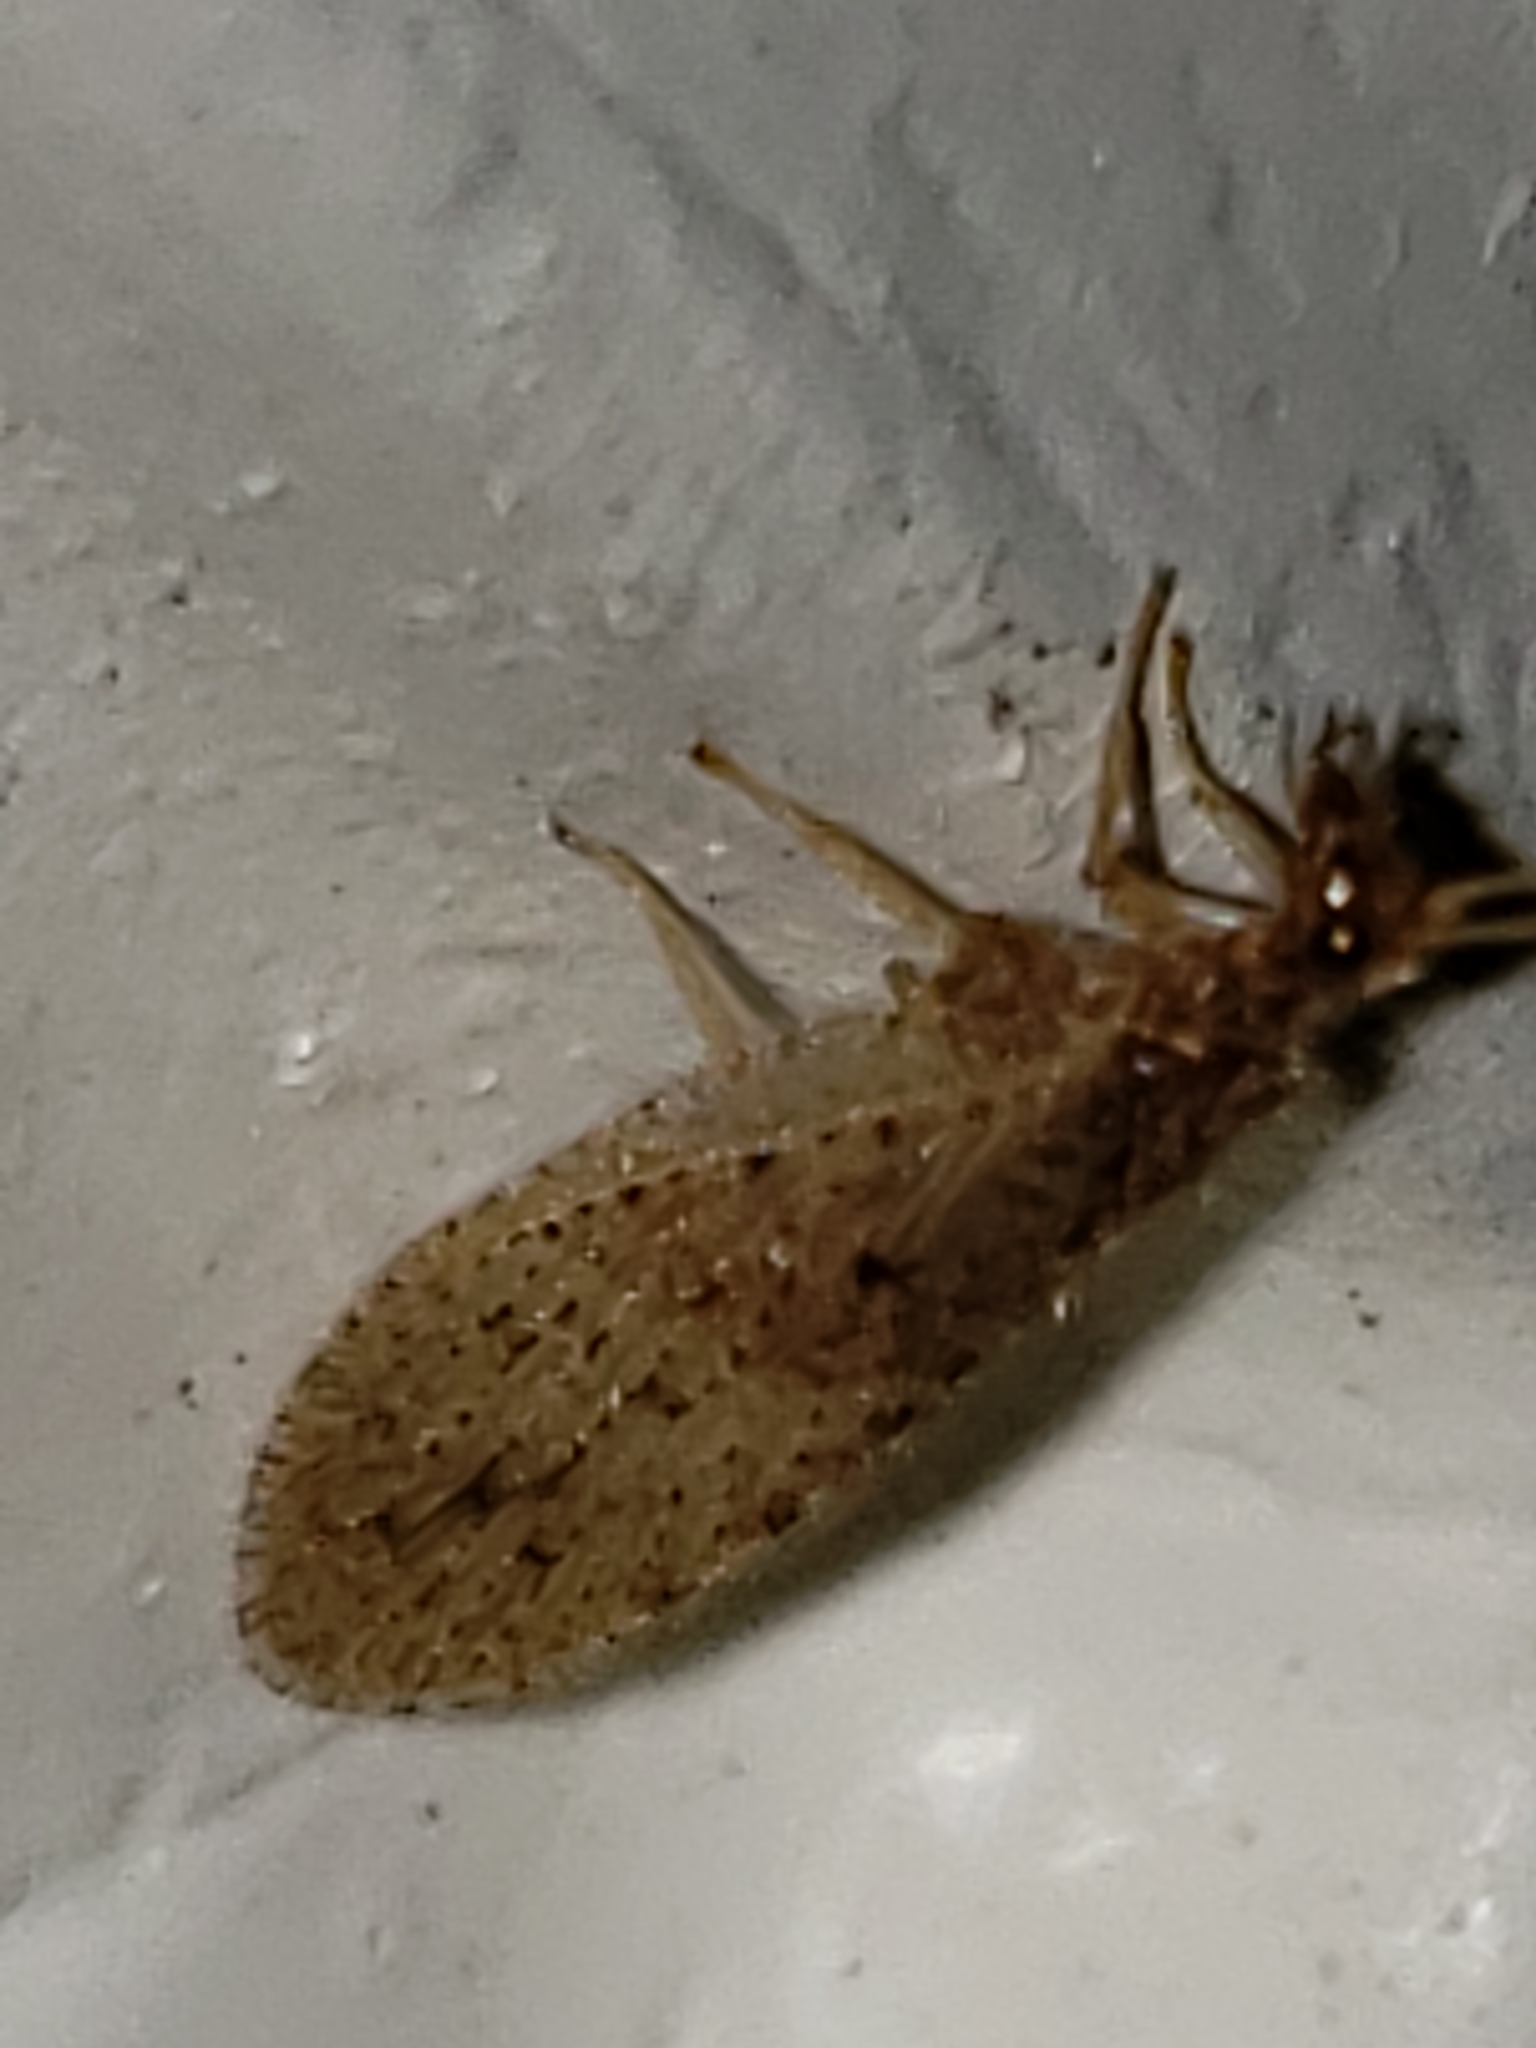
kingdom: Animalia
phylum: Arthropoda
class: Insecta
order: Neuroptera
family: Hemerobiidae
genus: Micromus
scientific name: Micromus subanticus
